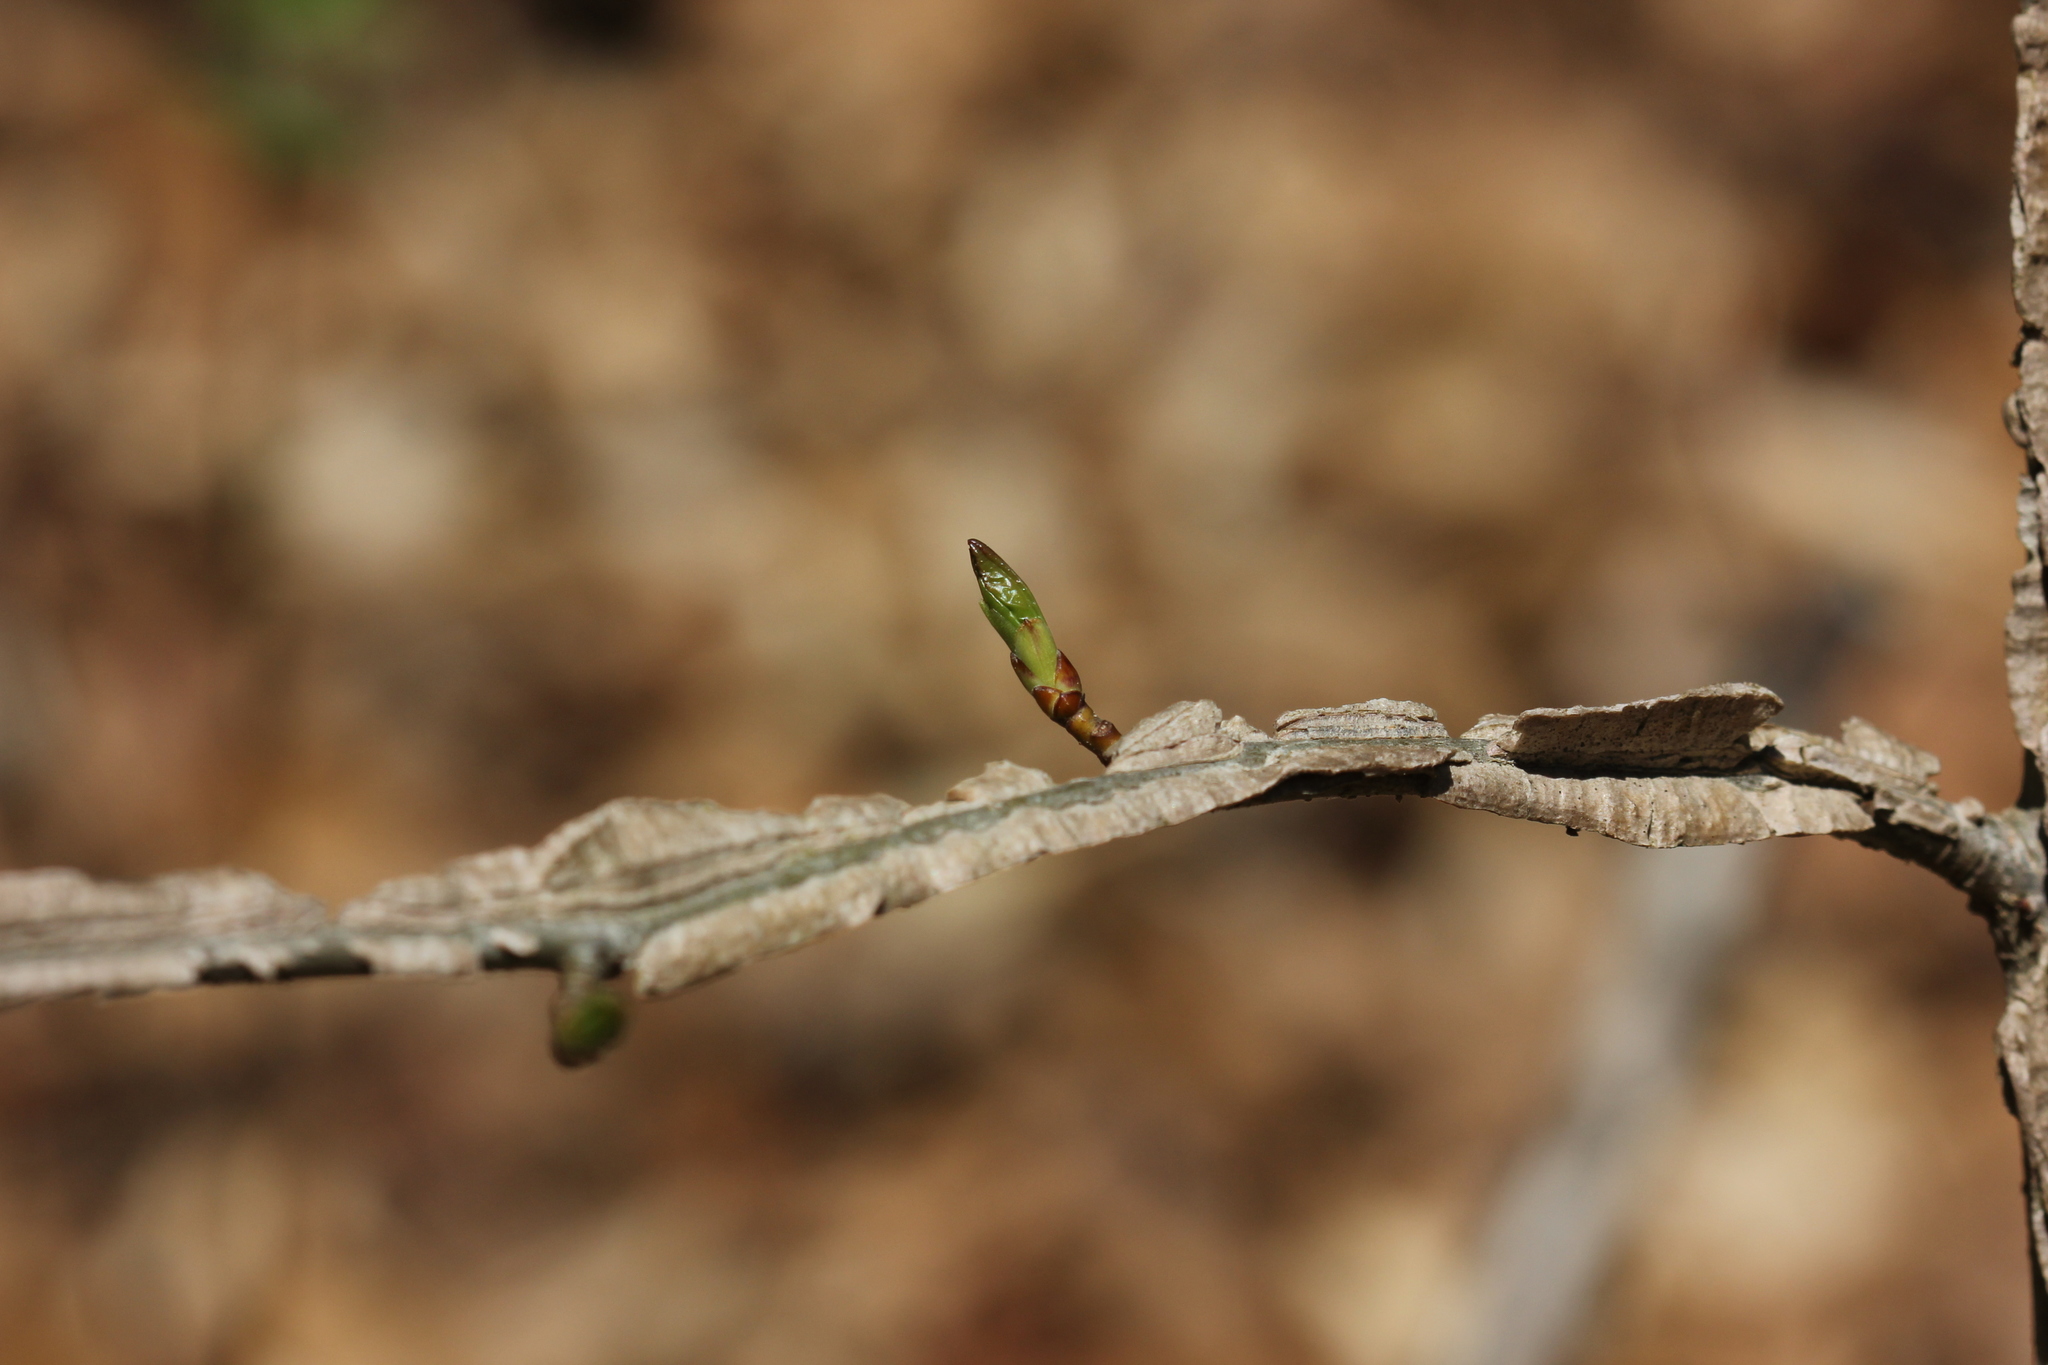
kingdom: Plantae
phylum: Tracheophyta
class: Magnoliopsida
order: Saxifragales
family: Altingiaceae
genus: Liquidambar
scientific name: Liquidambar styraciflua
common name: Sweet gum
